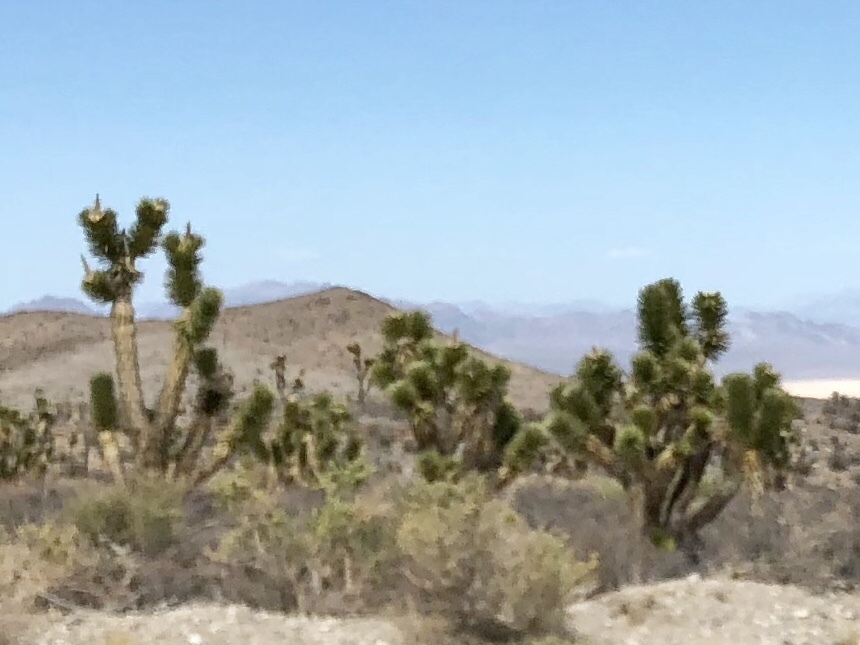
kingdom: Plantae
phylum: Tracheophyta
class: Liliopsida
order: Asparagales
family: Asparagaceae
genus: Yucca
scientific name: Yucca brevifolia
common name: Joshua tree
